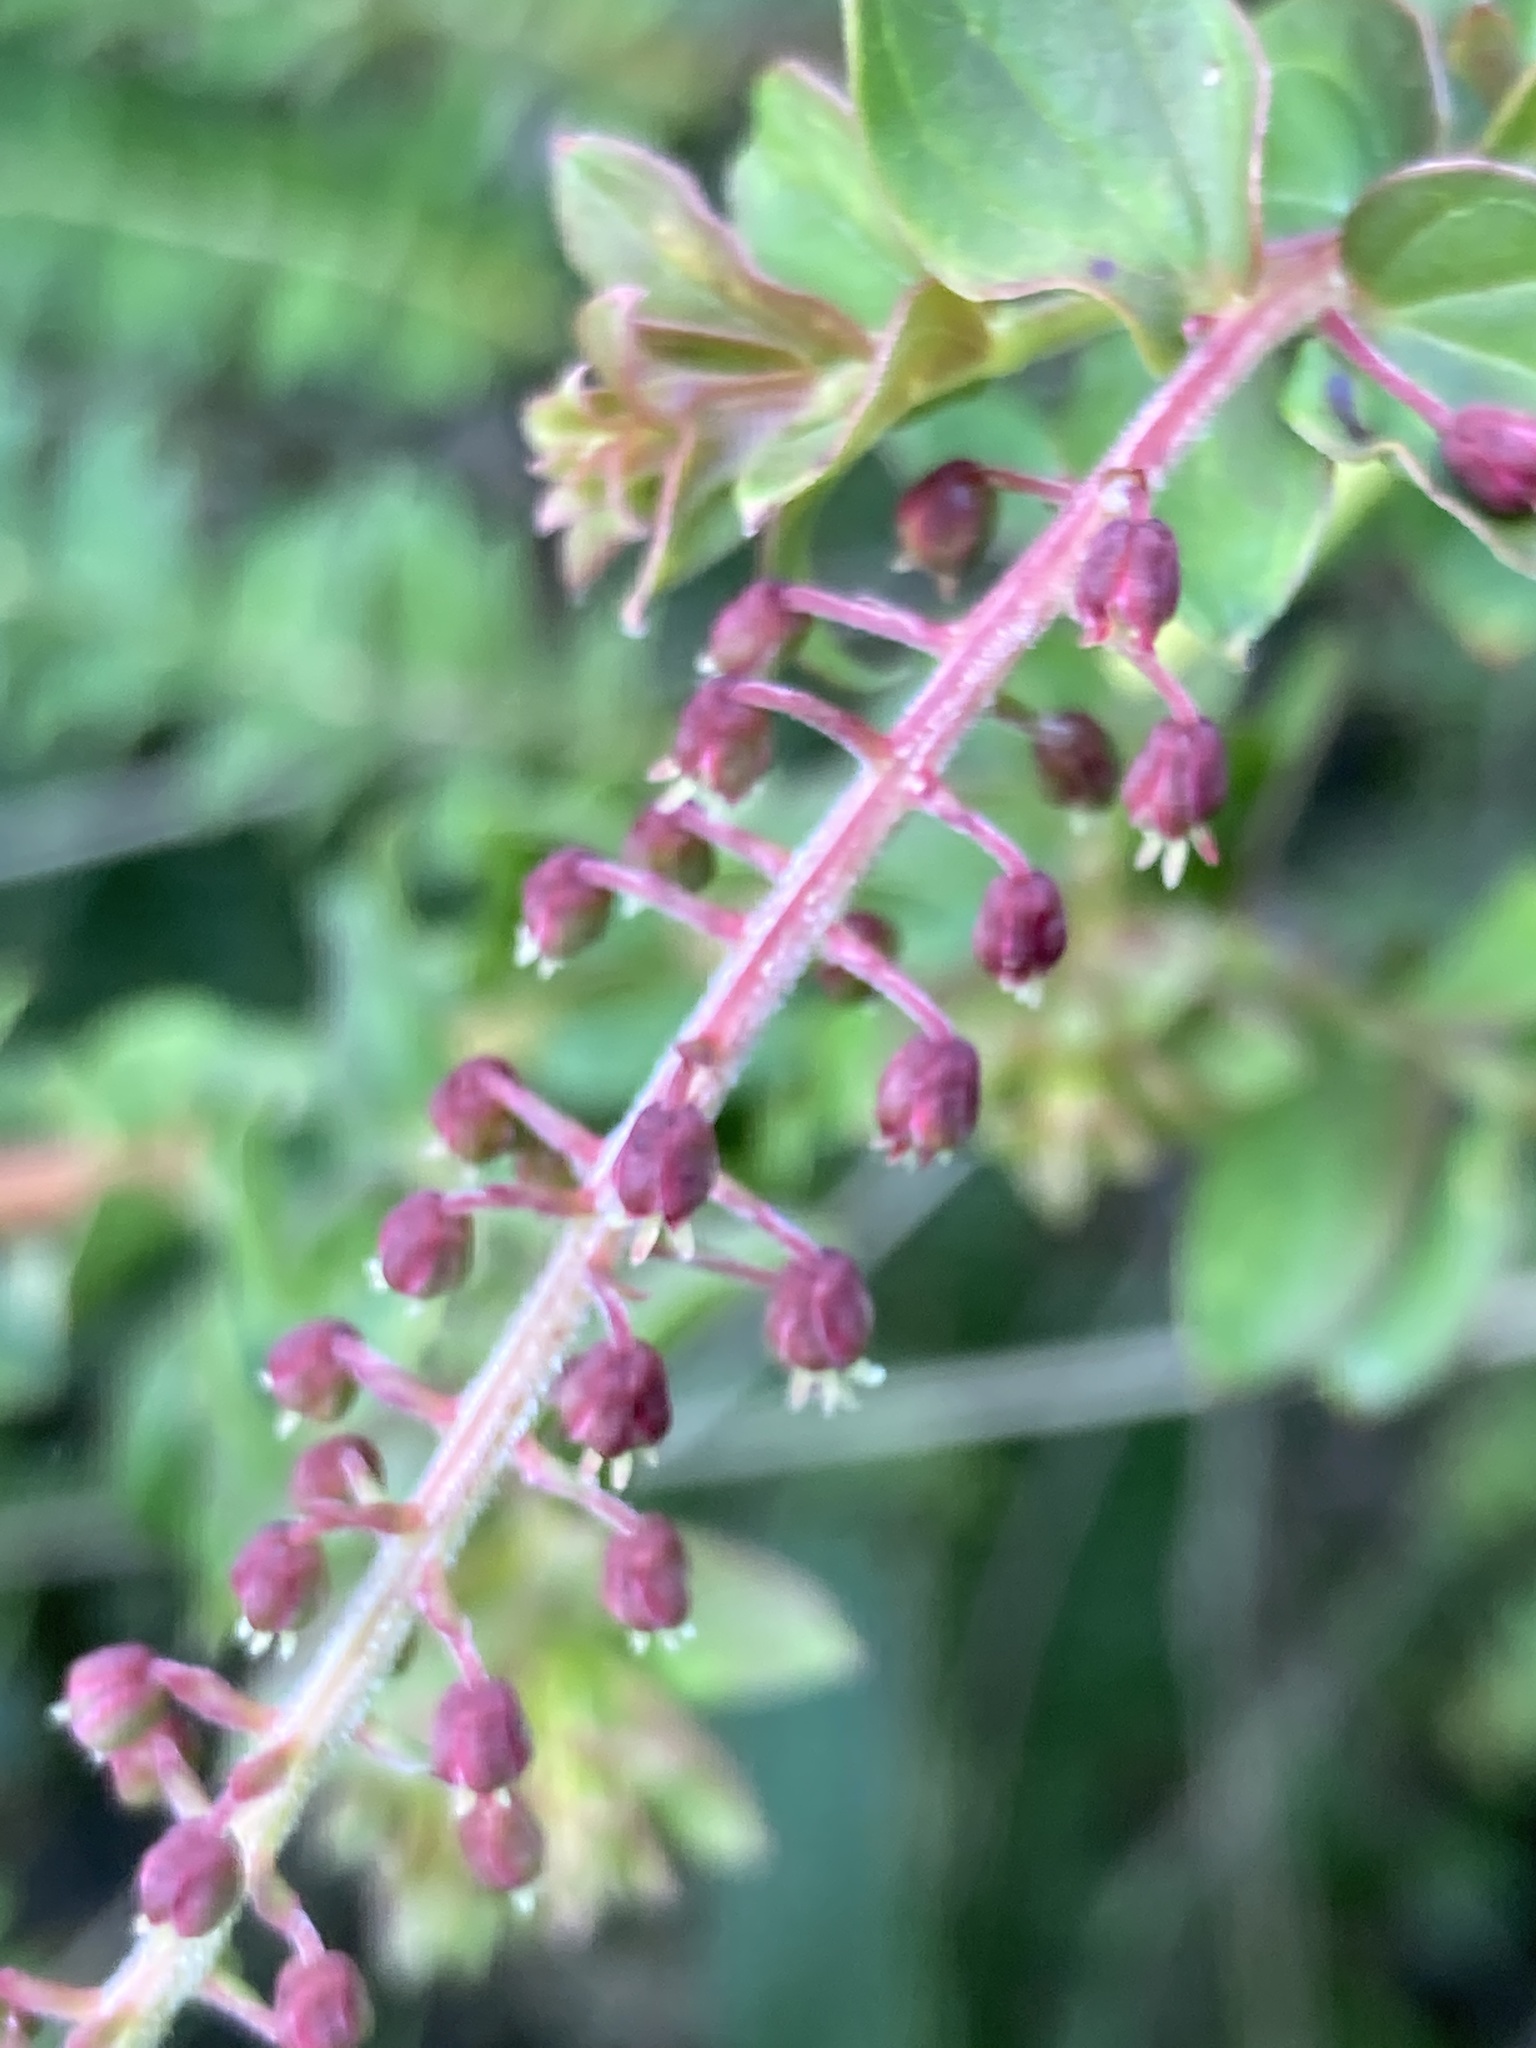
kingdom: Plantae
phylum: Tracheophyta
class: Magnoliopsida
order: Cucurbitales
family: Coriariaceae
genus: Coriaria
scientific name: Coriaria ruscifolia
